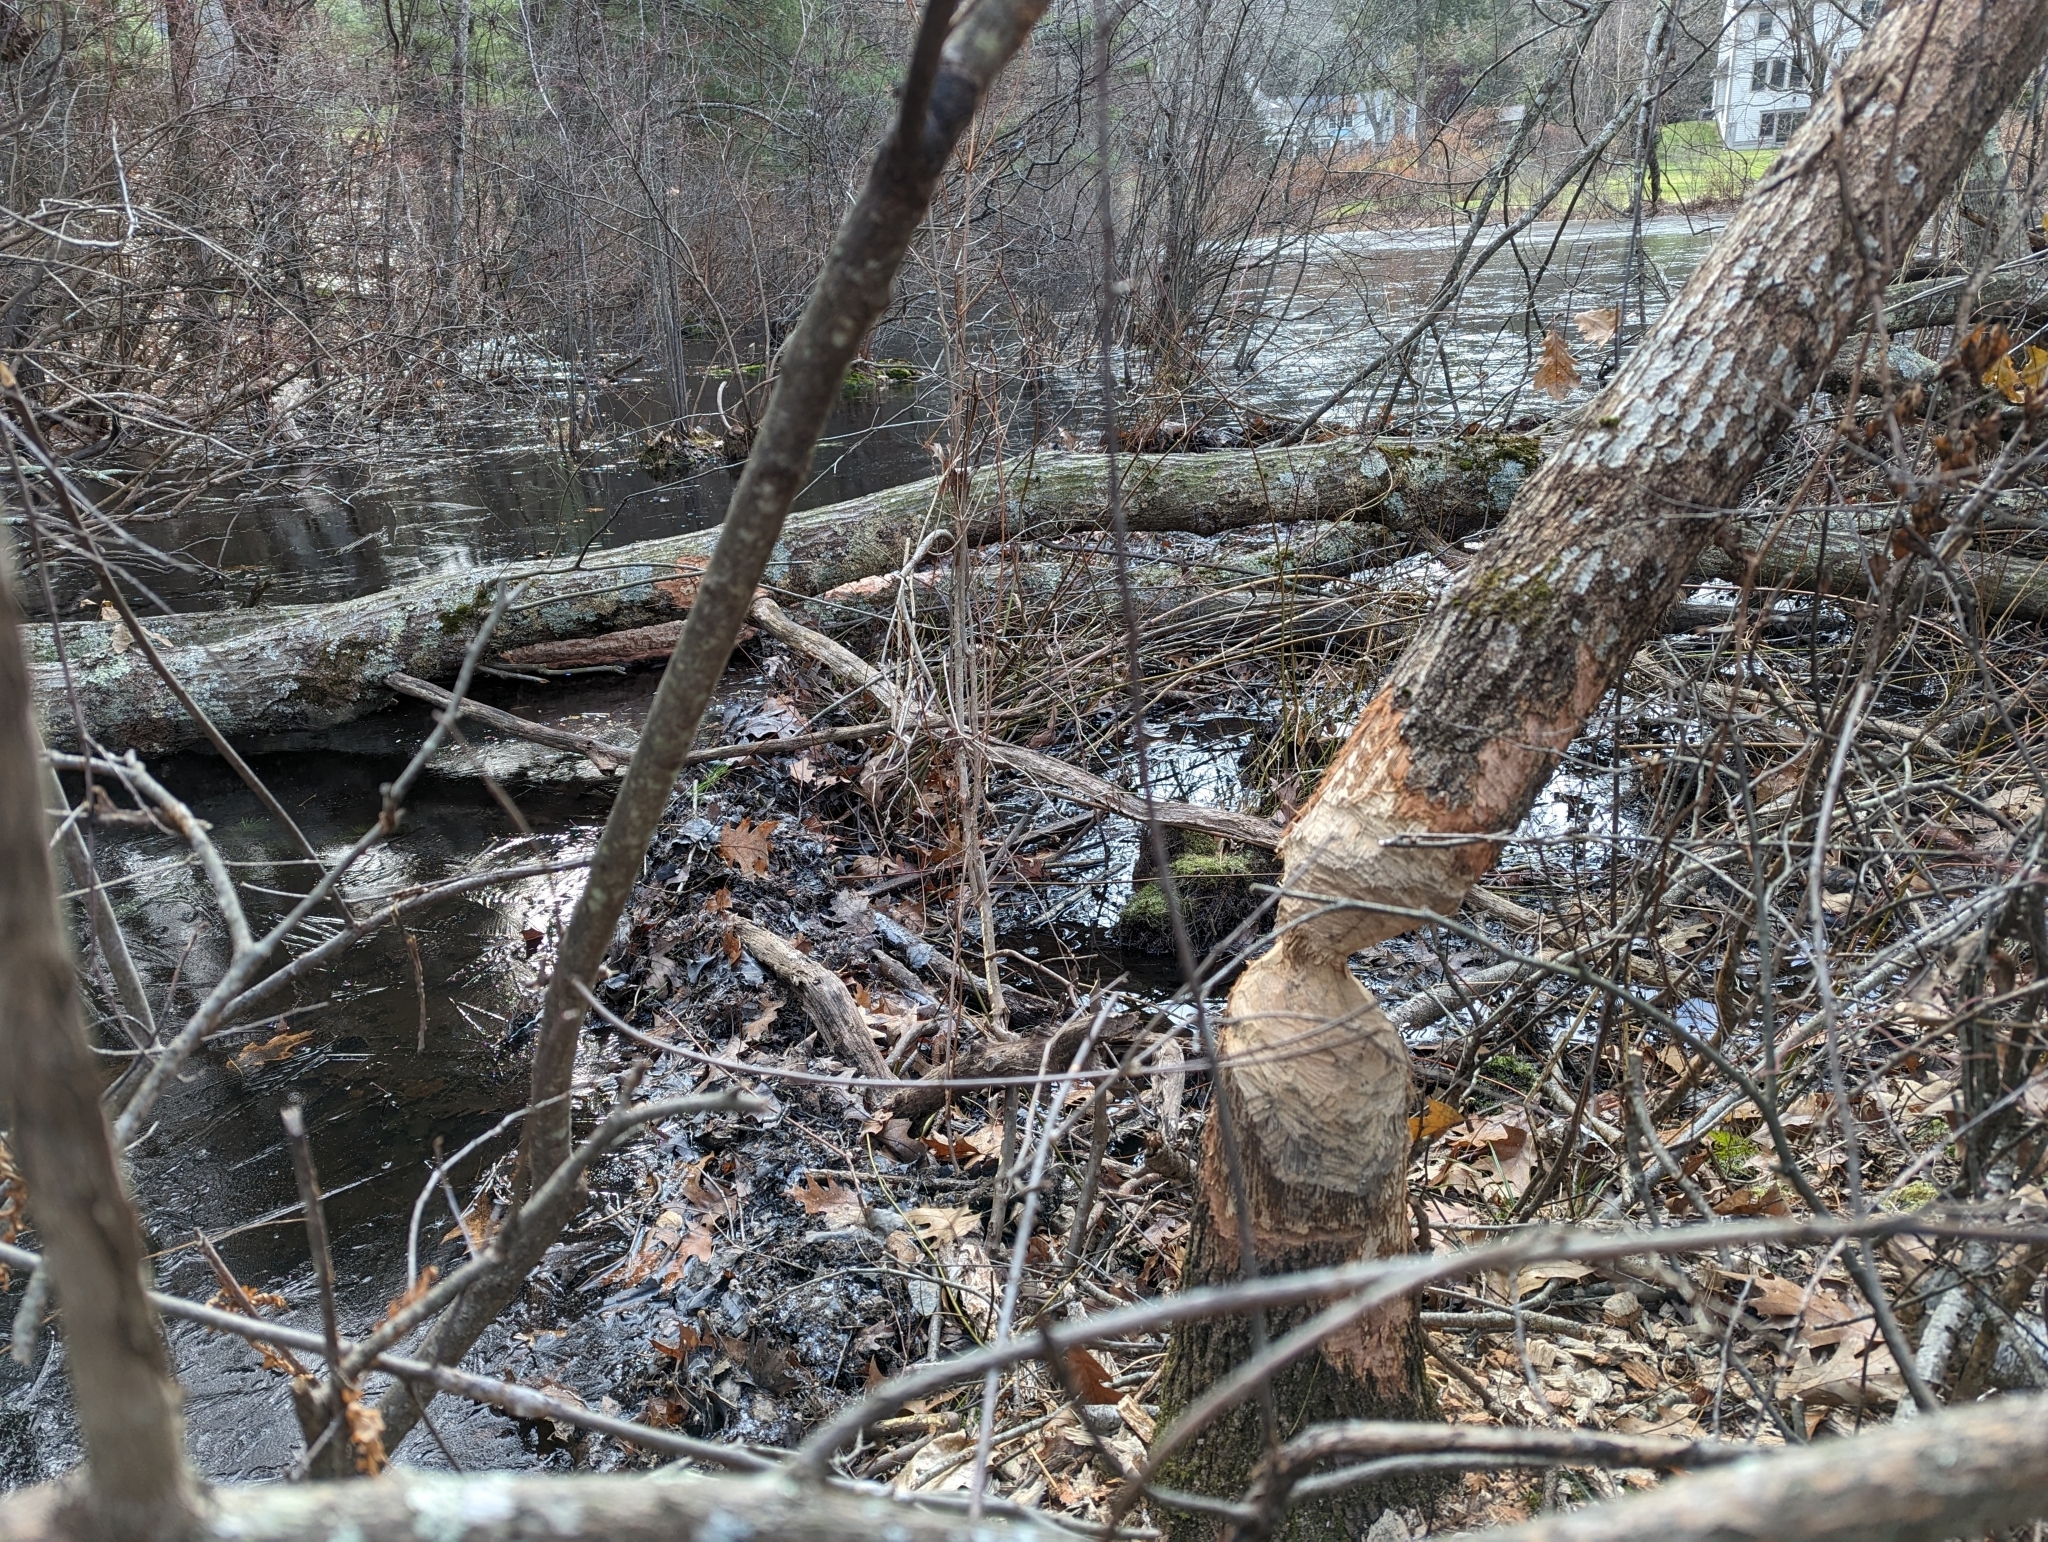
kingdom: Animalia
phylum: Chordata
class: Mammalia
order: Rodentia
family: Castoridae
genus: Castor
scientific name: Castor canadensis
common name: American beaver
